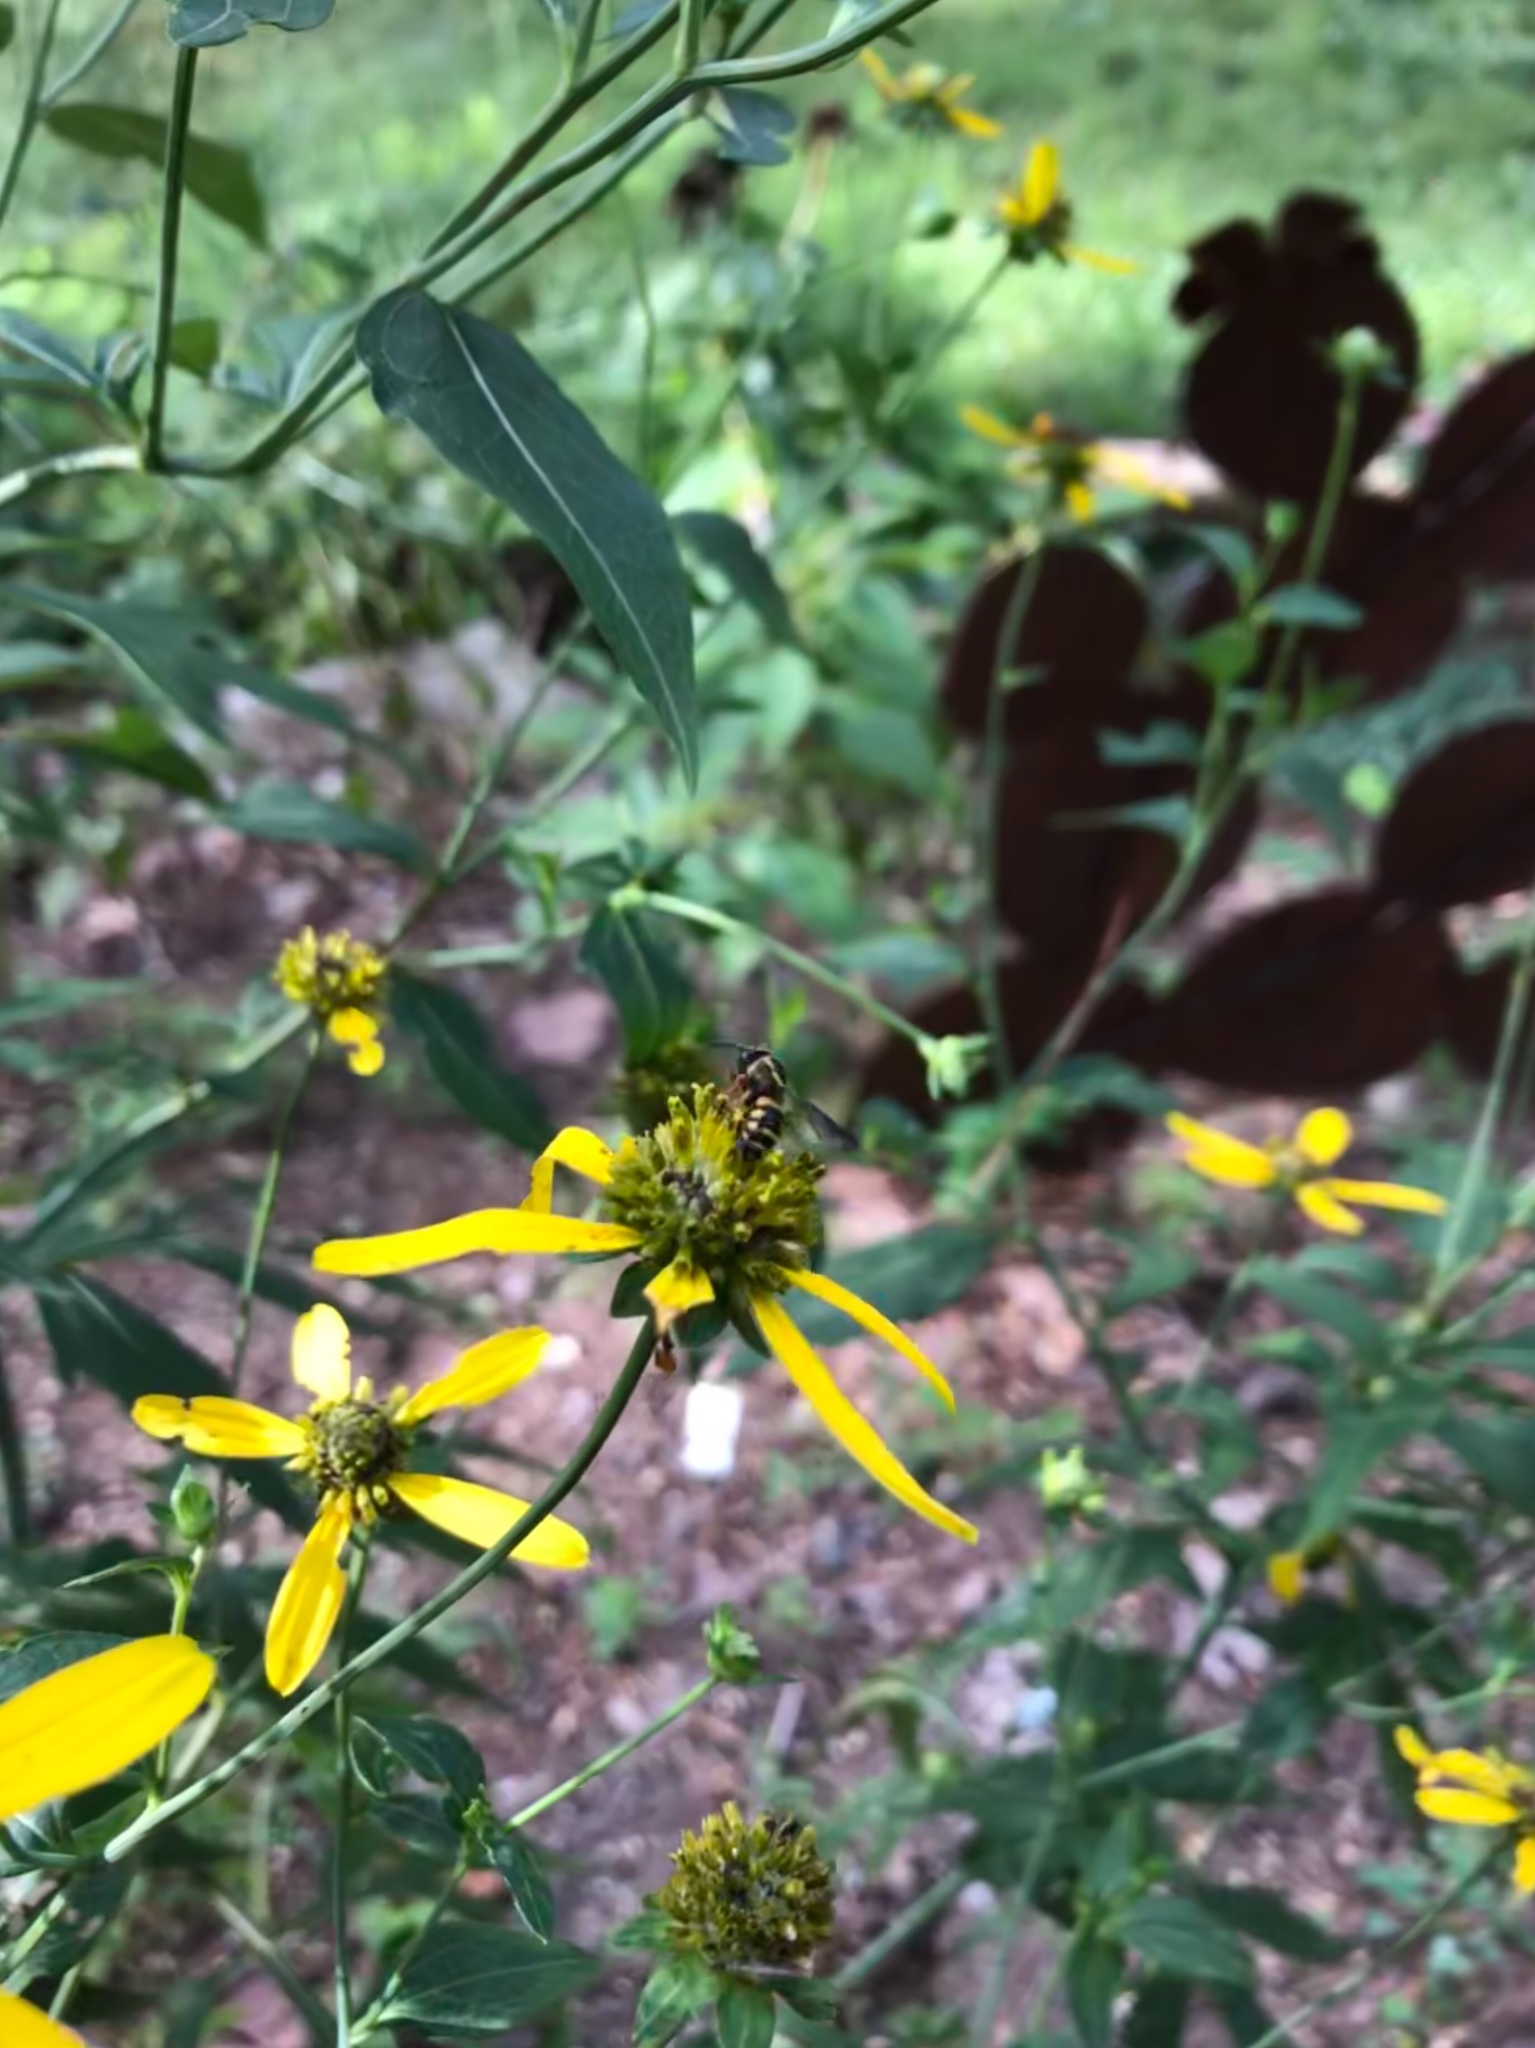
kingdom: Animalia
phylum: Arthropoda
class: Insecta
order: Hymenoptera
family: Megachilidae
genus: Stelis
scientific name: Stelis louisae
